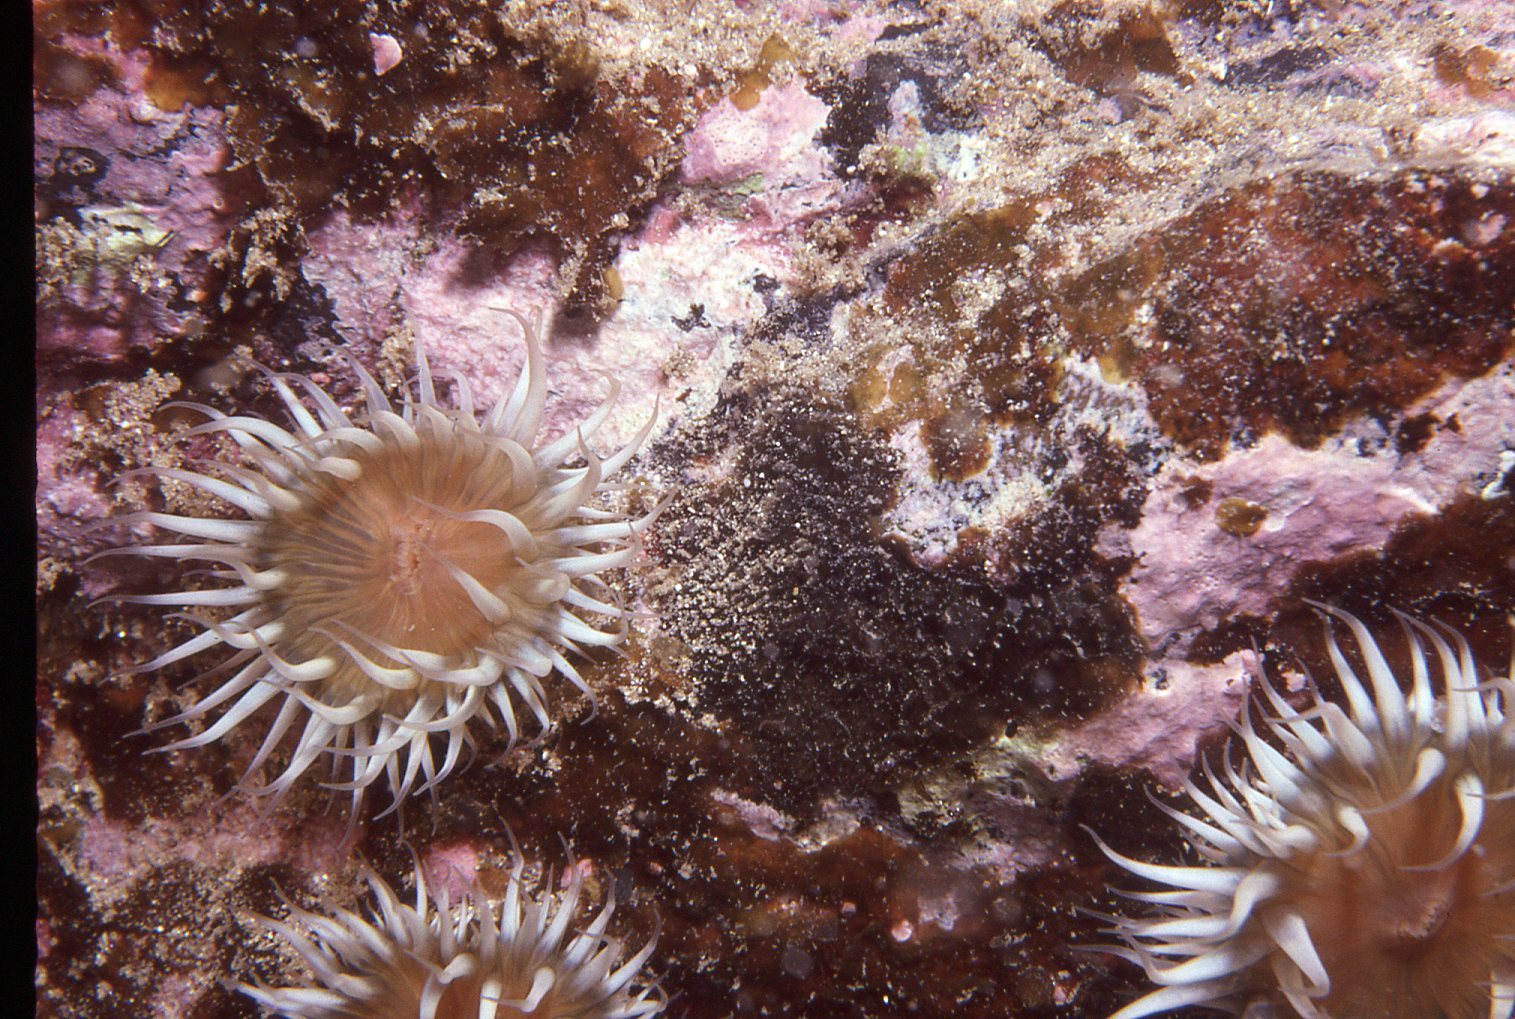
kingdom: Animalia
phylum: Cnidaria
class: Anthozoa
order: Actiniaria
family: Sagartiidae
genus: Anthothoe
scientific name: Anthothoe albocincta
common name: Orange striped anemone
